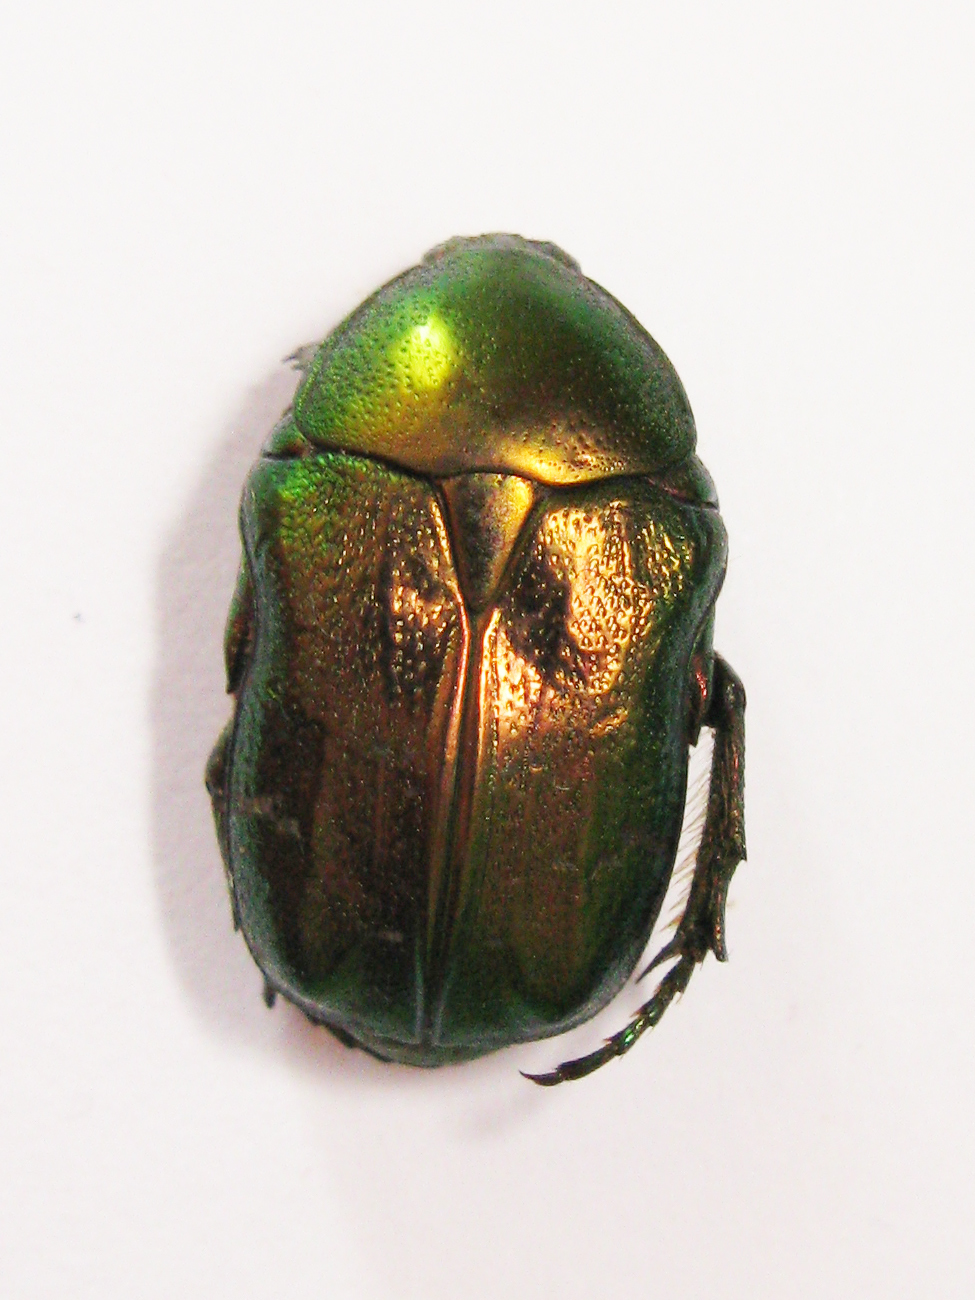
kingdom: Animalia
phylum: Arthropoda
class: Insecta
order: Coleoptera
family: Scarabaeidae
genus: Cetonia
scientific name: Cetonia aurata
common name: Rose chafer
